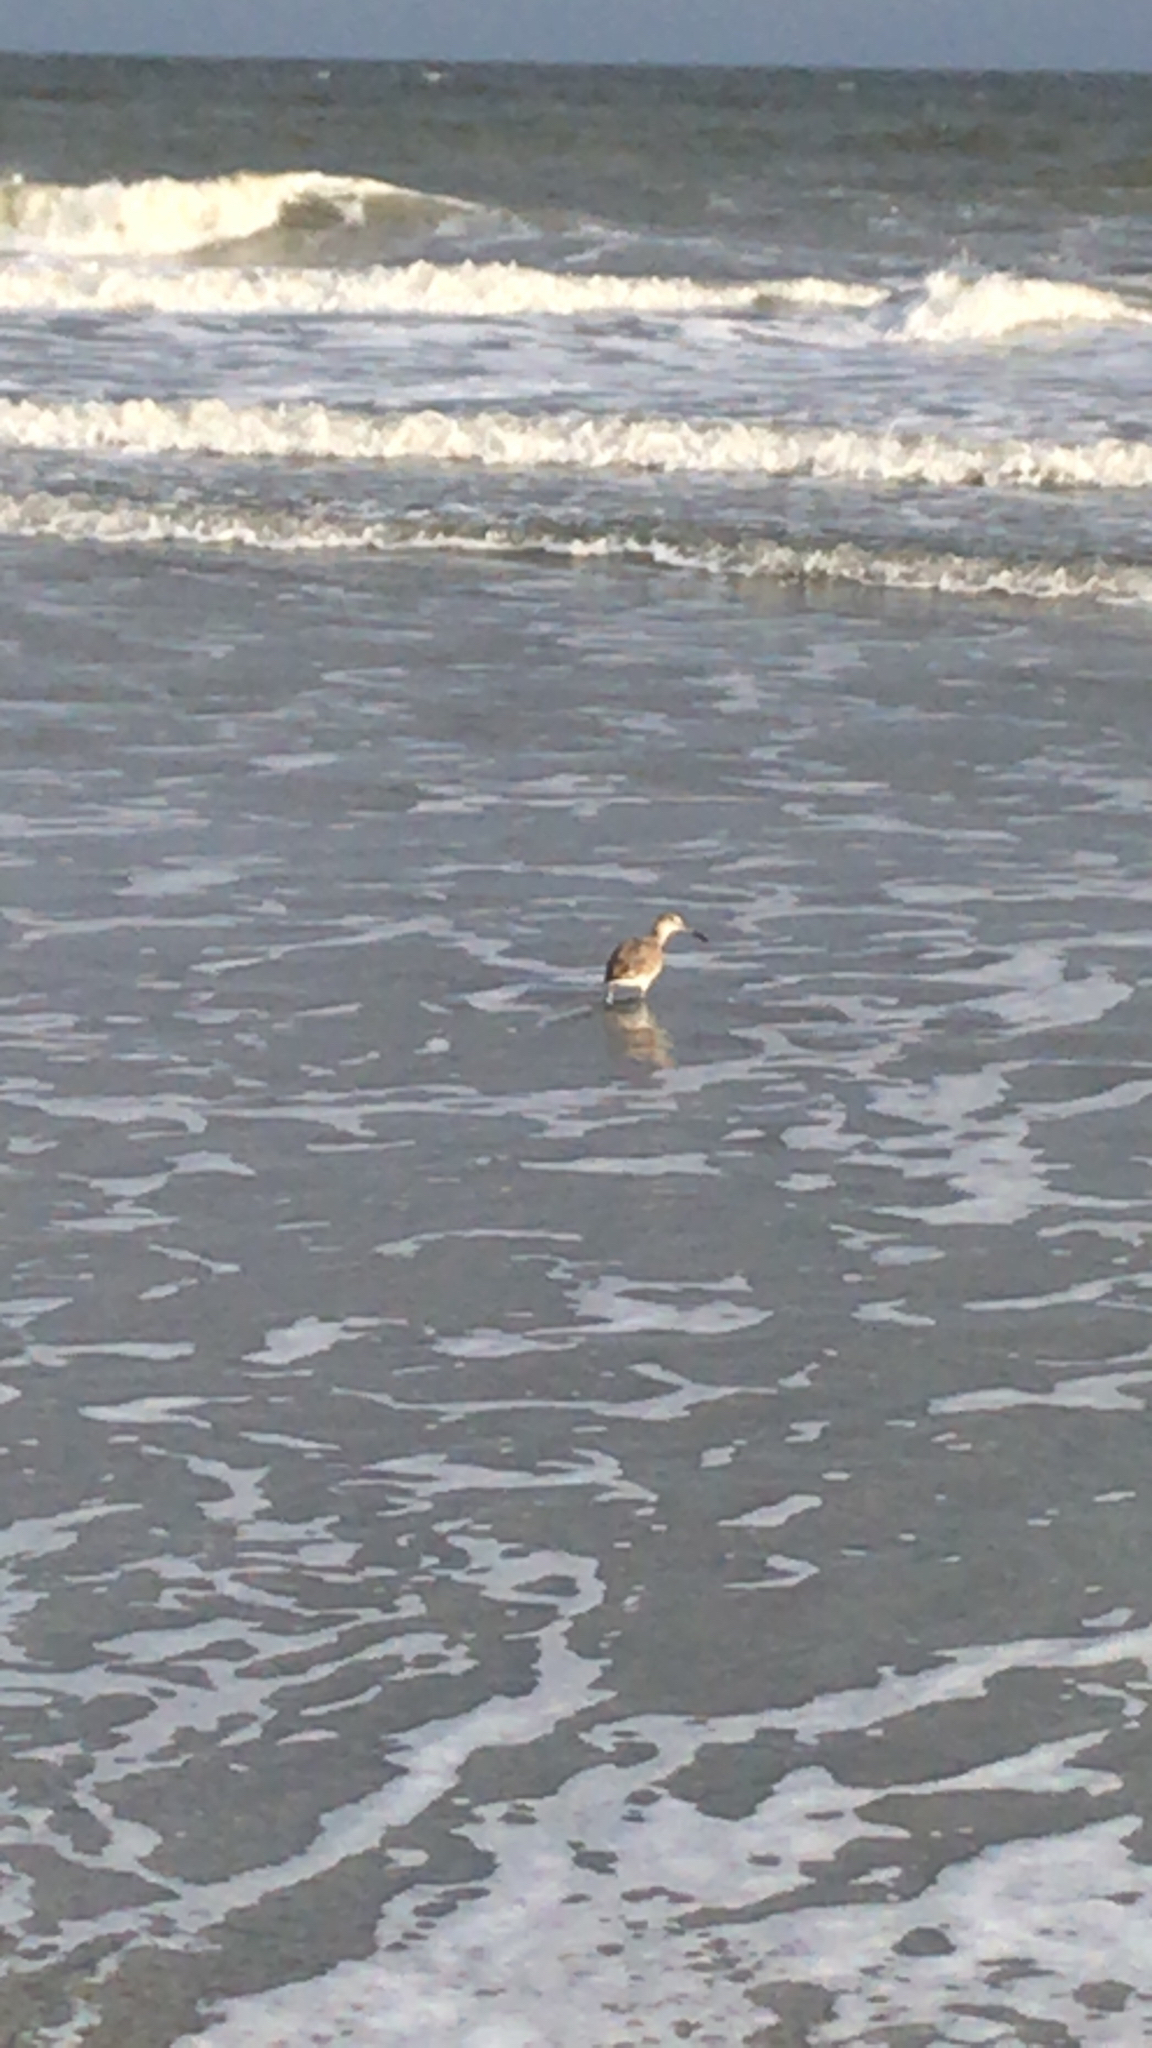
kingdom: Animalia
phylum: Chordata
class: Aves
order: Charadriiformes
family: Scolopacidae
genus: Tringa
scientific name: Tringa semipalmata
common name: Willet
